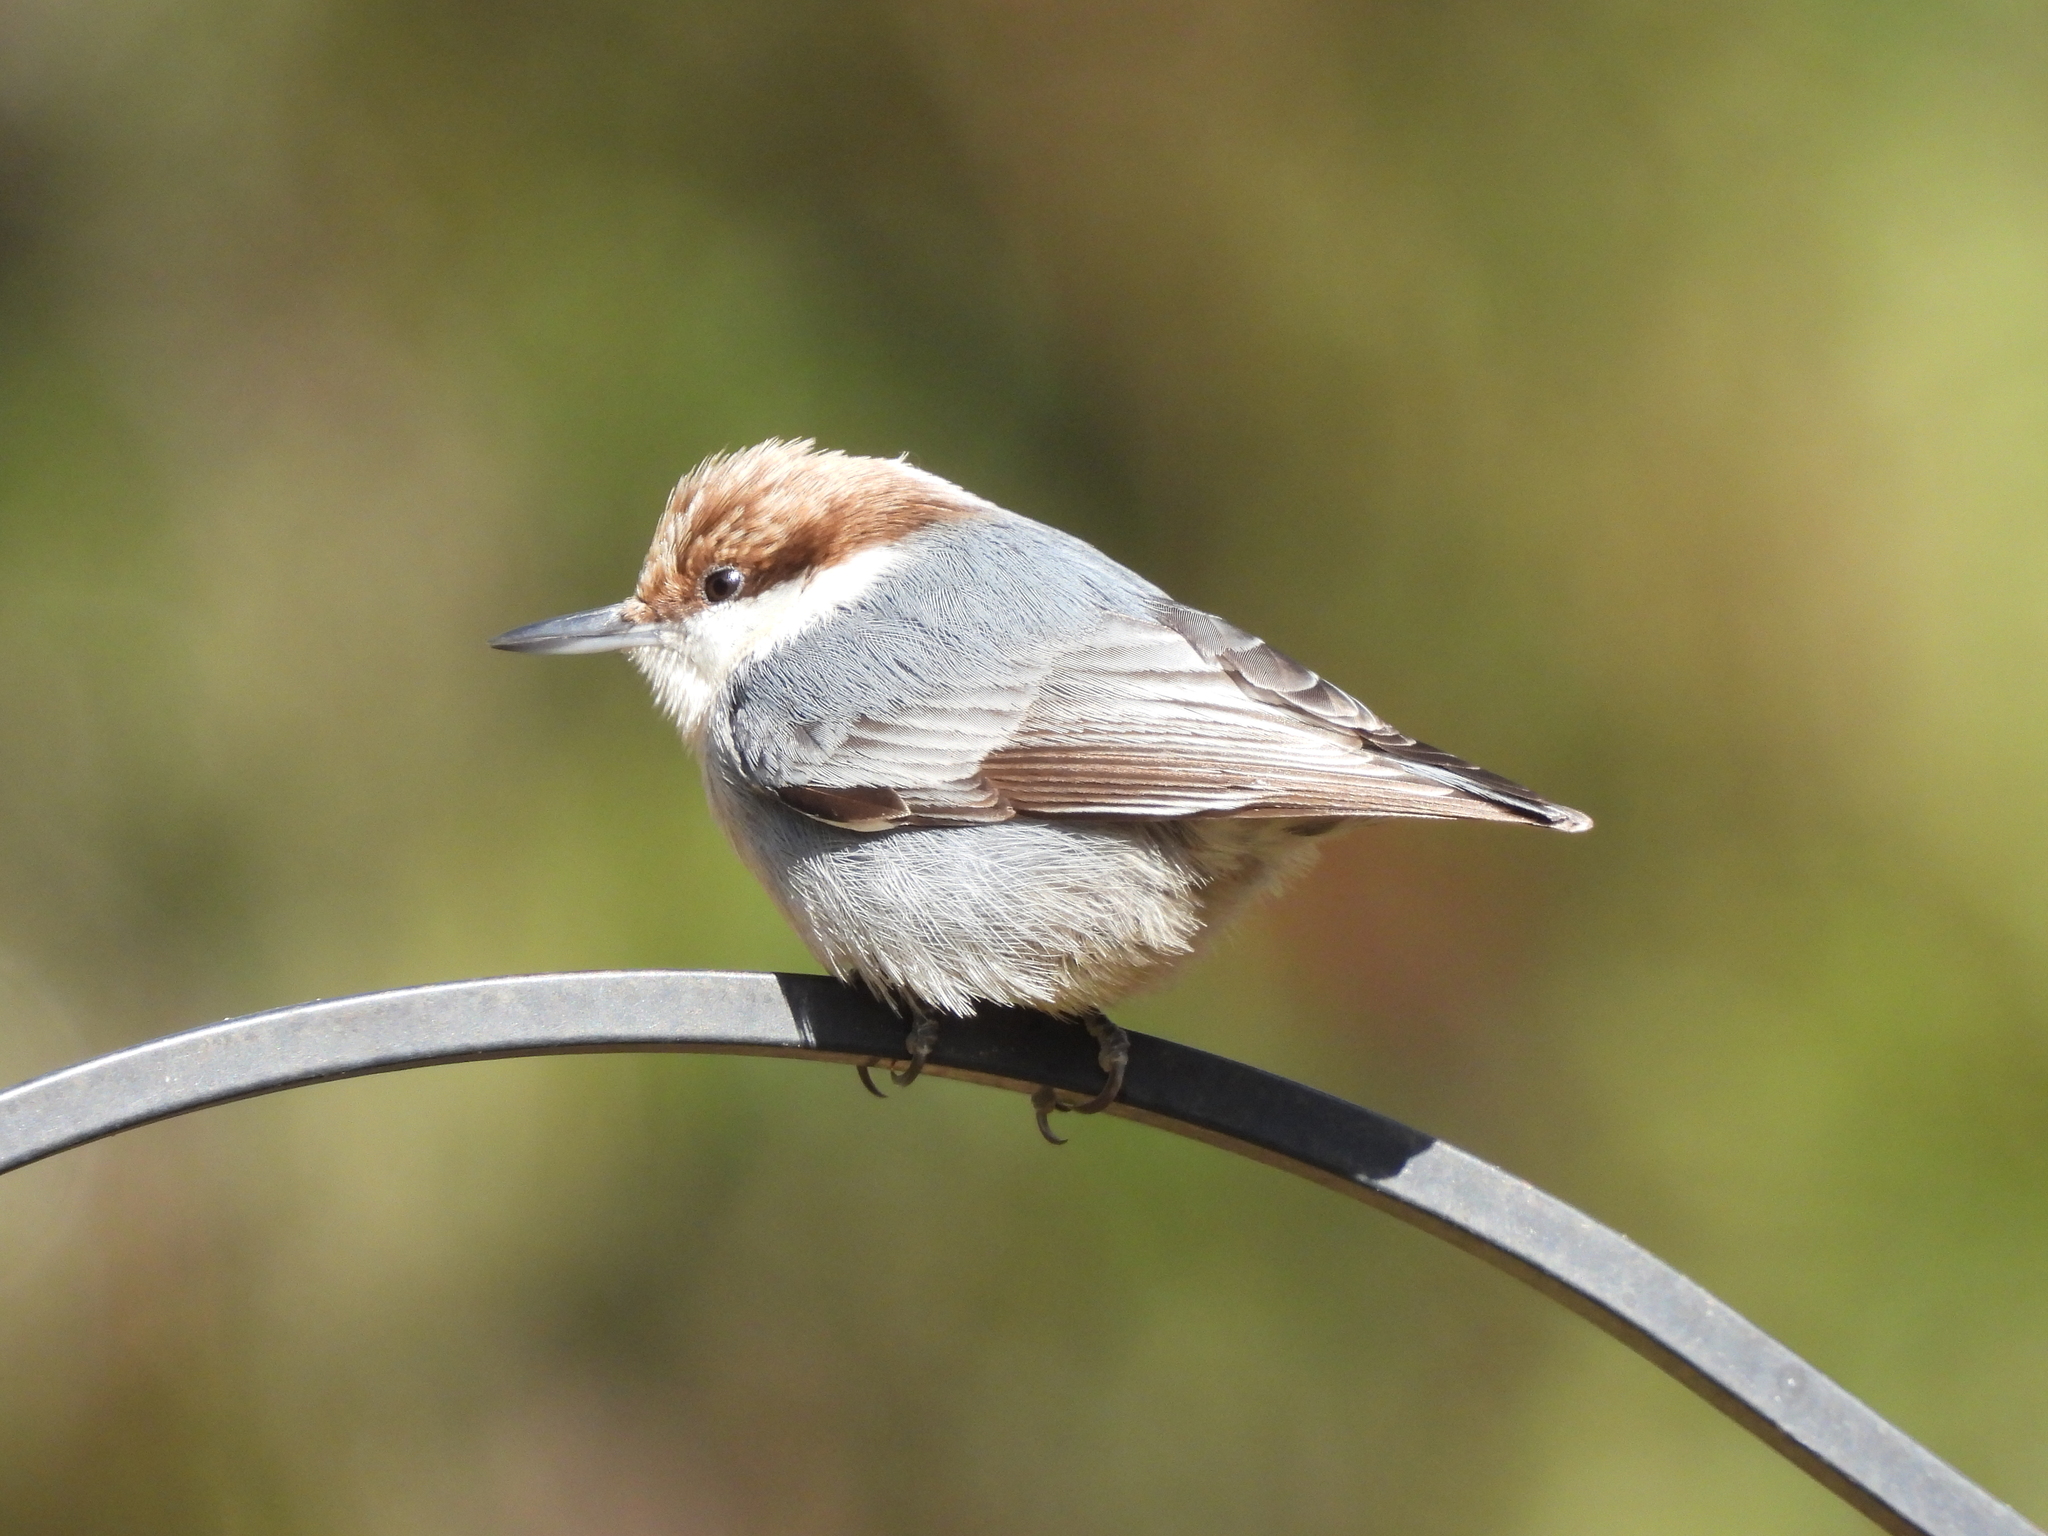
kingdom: Animalia
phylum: Chordata
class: Aves
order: Passeriformes
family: Sittidae
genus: Sitta
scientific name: Sitta pusilla
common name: Brown-headed nuthatch
